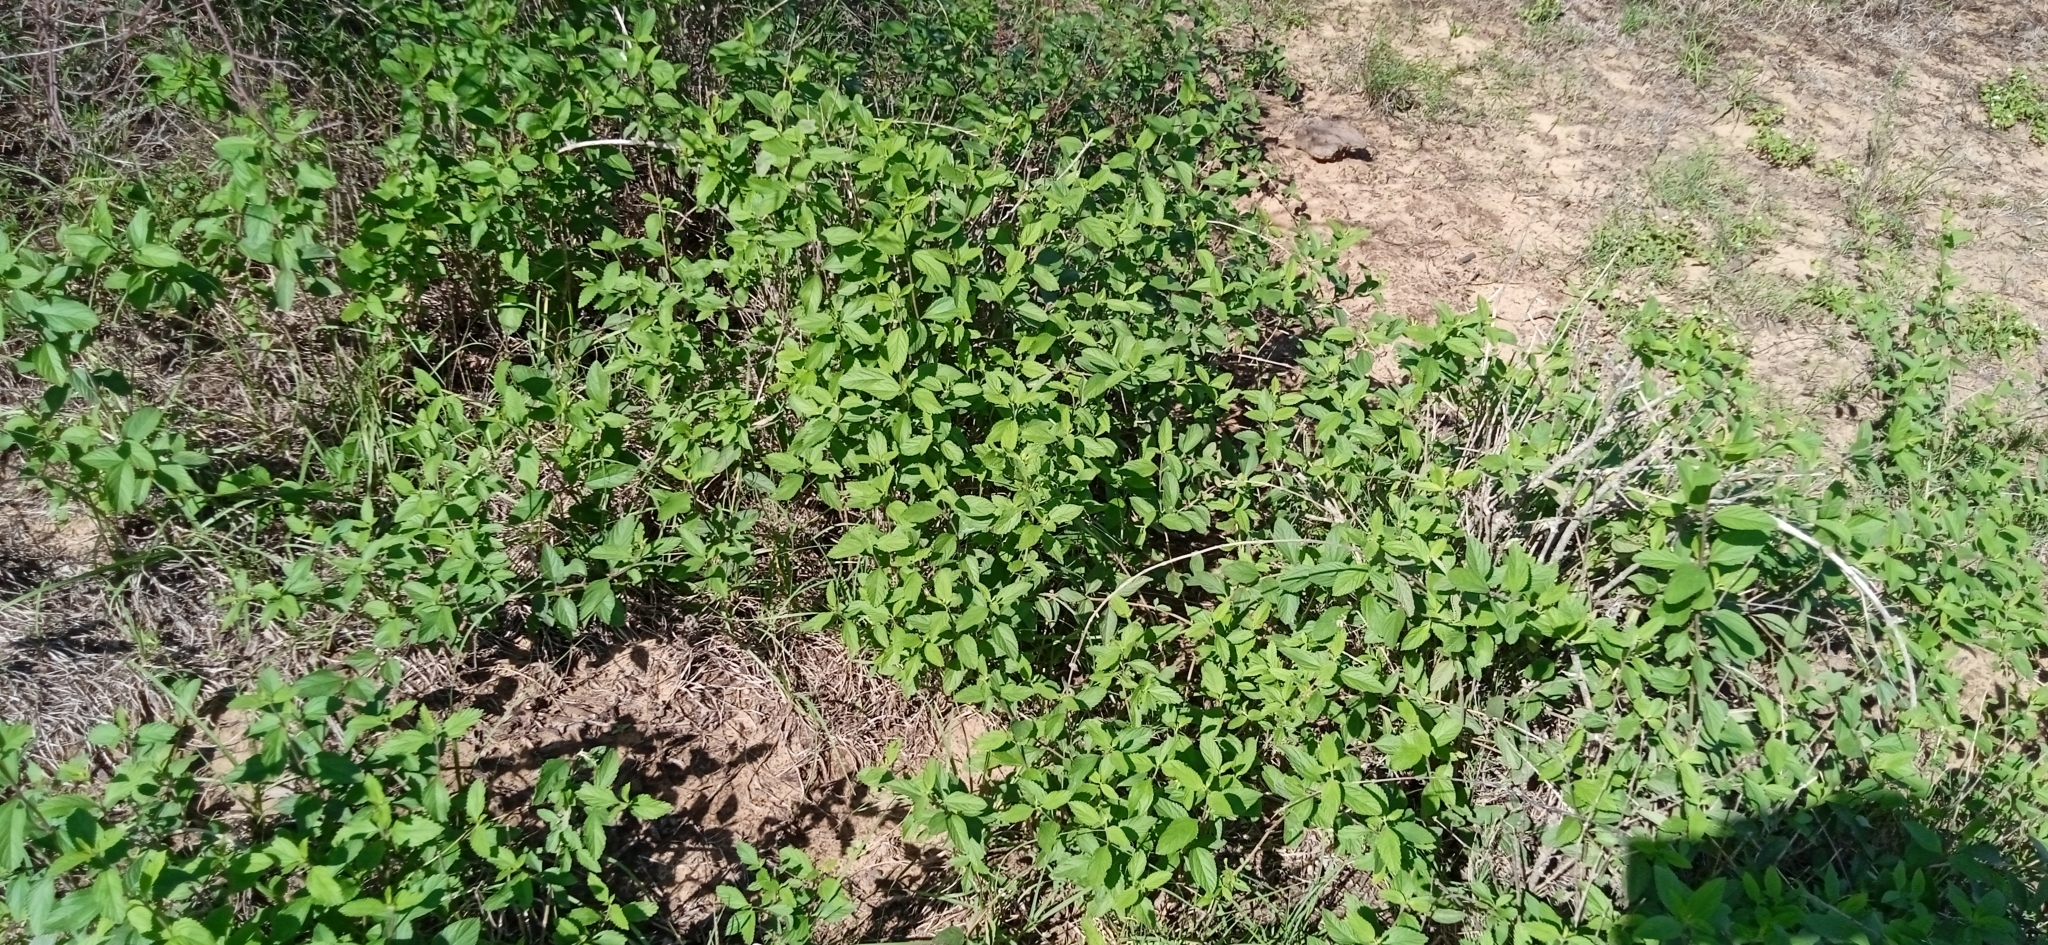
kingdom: Plantae
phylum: Tracheophyta
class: Magnoliopsida
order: Lamiales
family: Verbenaceae
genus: Lippia
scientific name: Lippia alba
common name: Bushy matgrass
